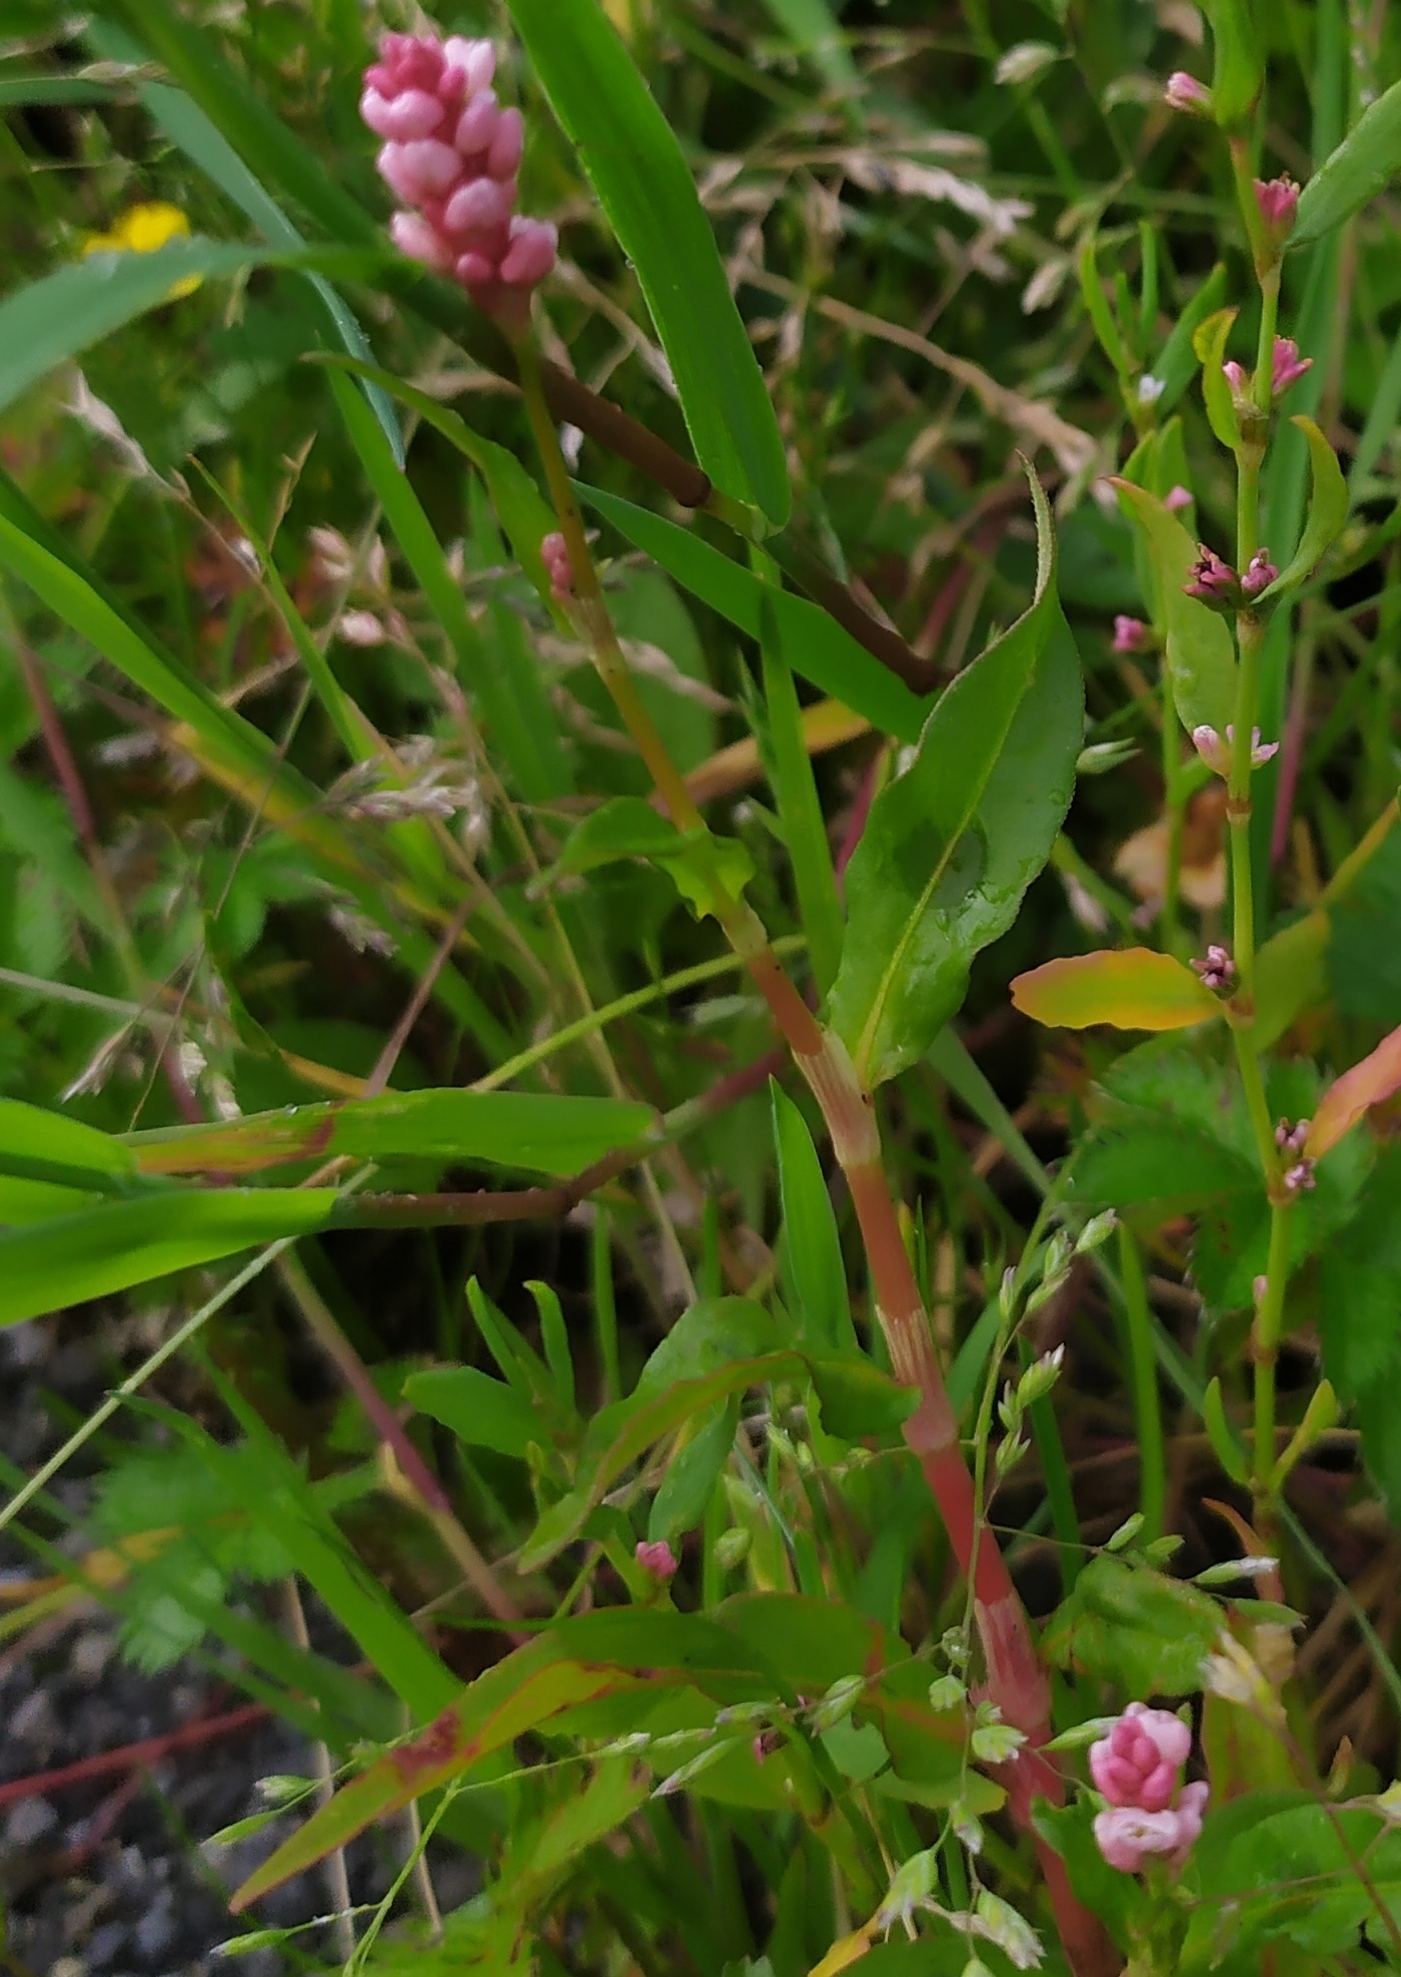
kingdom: Plantae
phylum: Tracheophyta
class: Magnoliopsida
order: Caryophyllales
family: Polygonaceae
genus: Persicaria
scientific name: Persicaria maculosa
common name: Redshank
